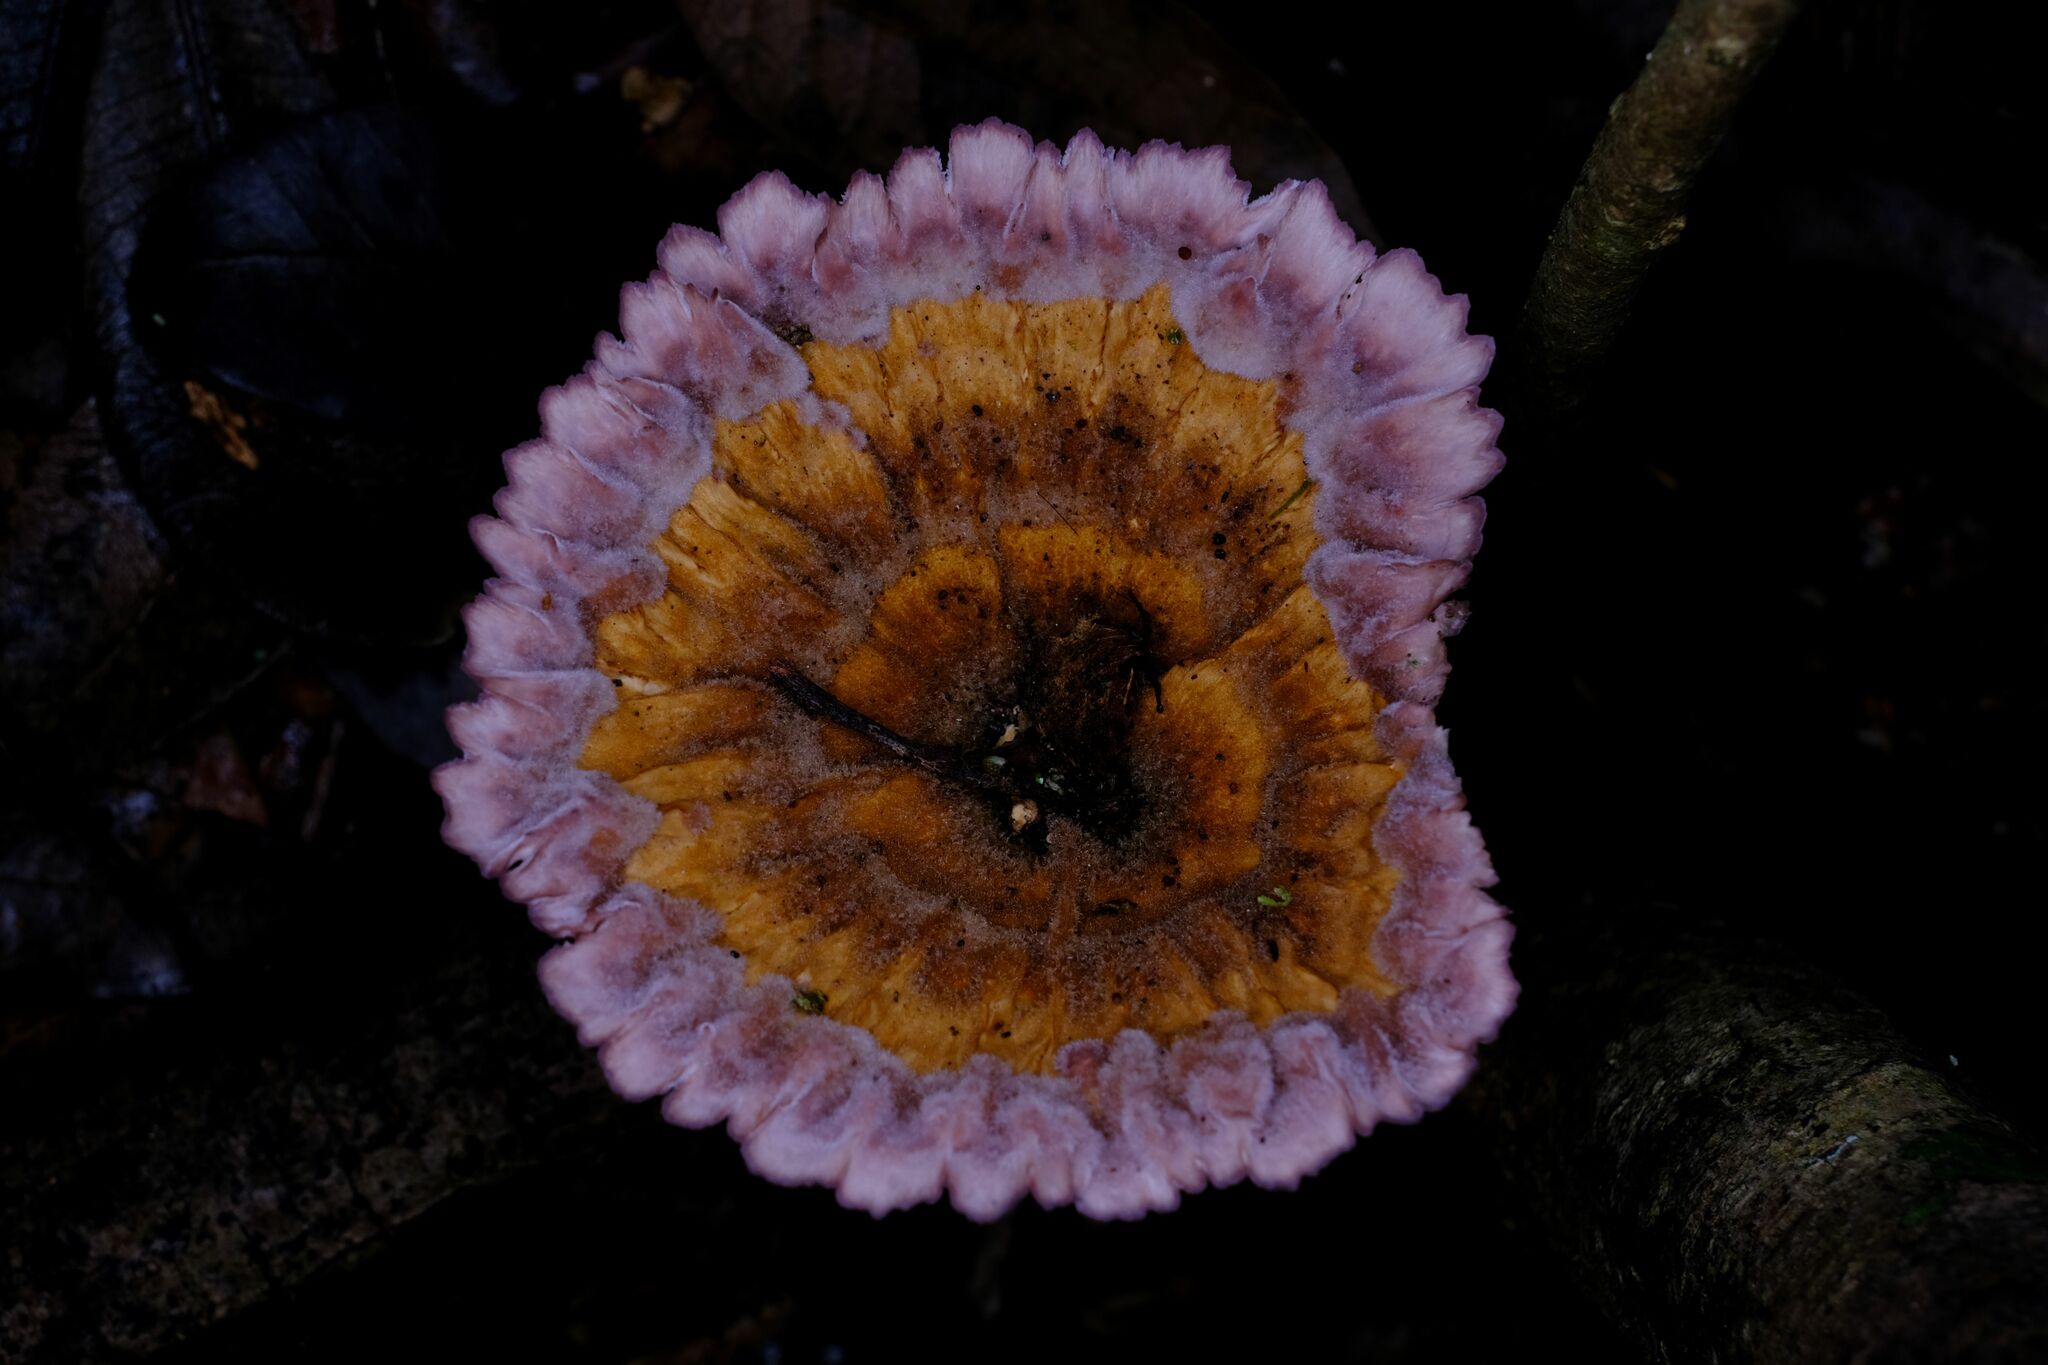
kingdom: Fungi
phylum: Basidiomycota
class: Agaricomycetes
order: Polyporales
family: Panaceae
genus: Cymatoderma
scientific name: Cymatoderma elegans
